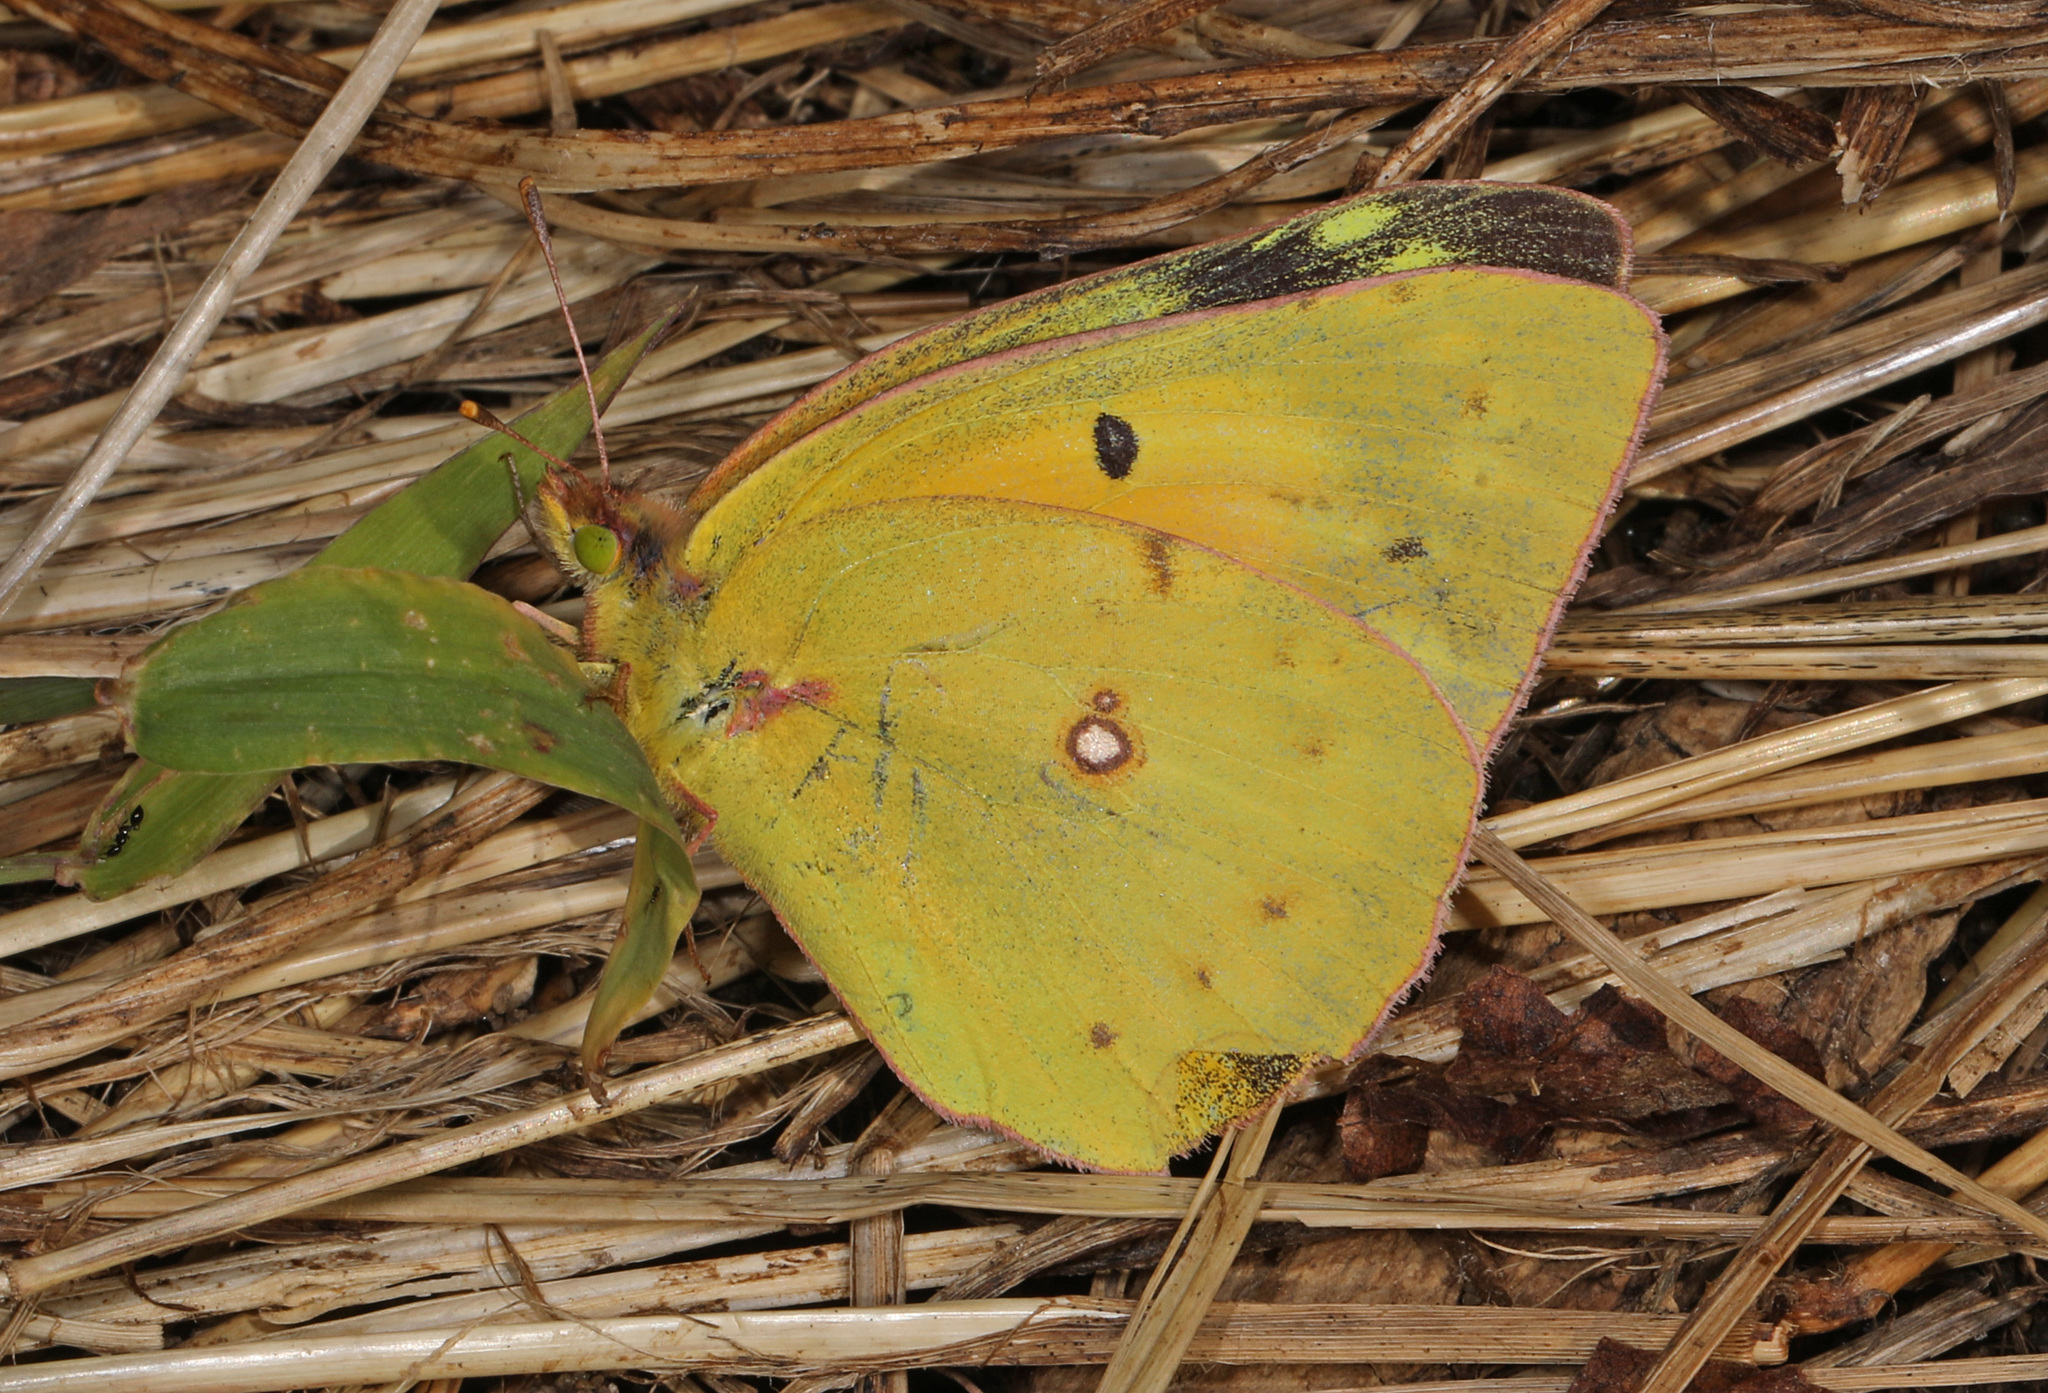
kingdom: Animalia
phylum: Arthropoda
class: Insecta
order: Lepidoptera
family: Pieridae
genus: Colias
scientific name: Colias eurytheme
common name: Alfalfa butterfly
